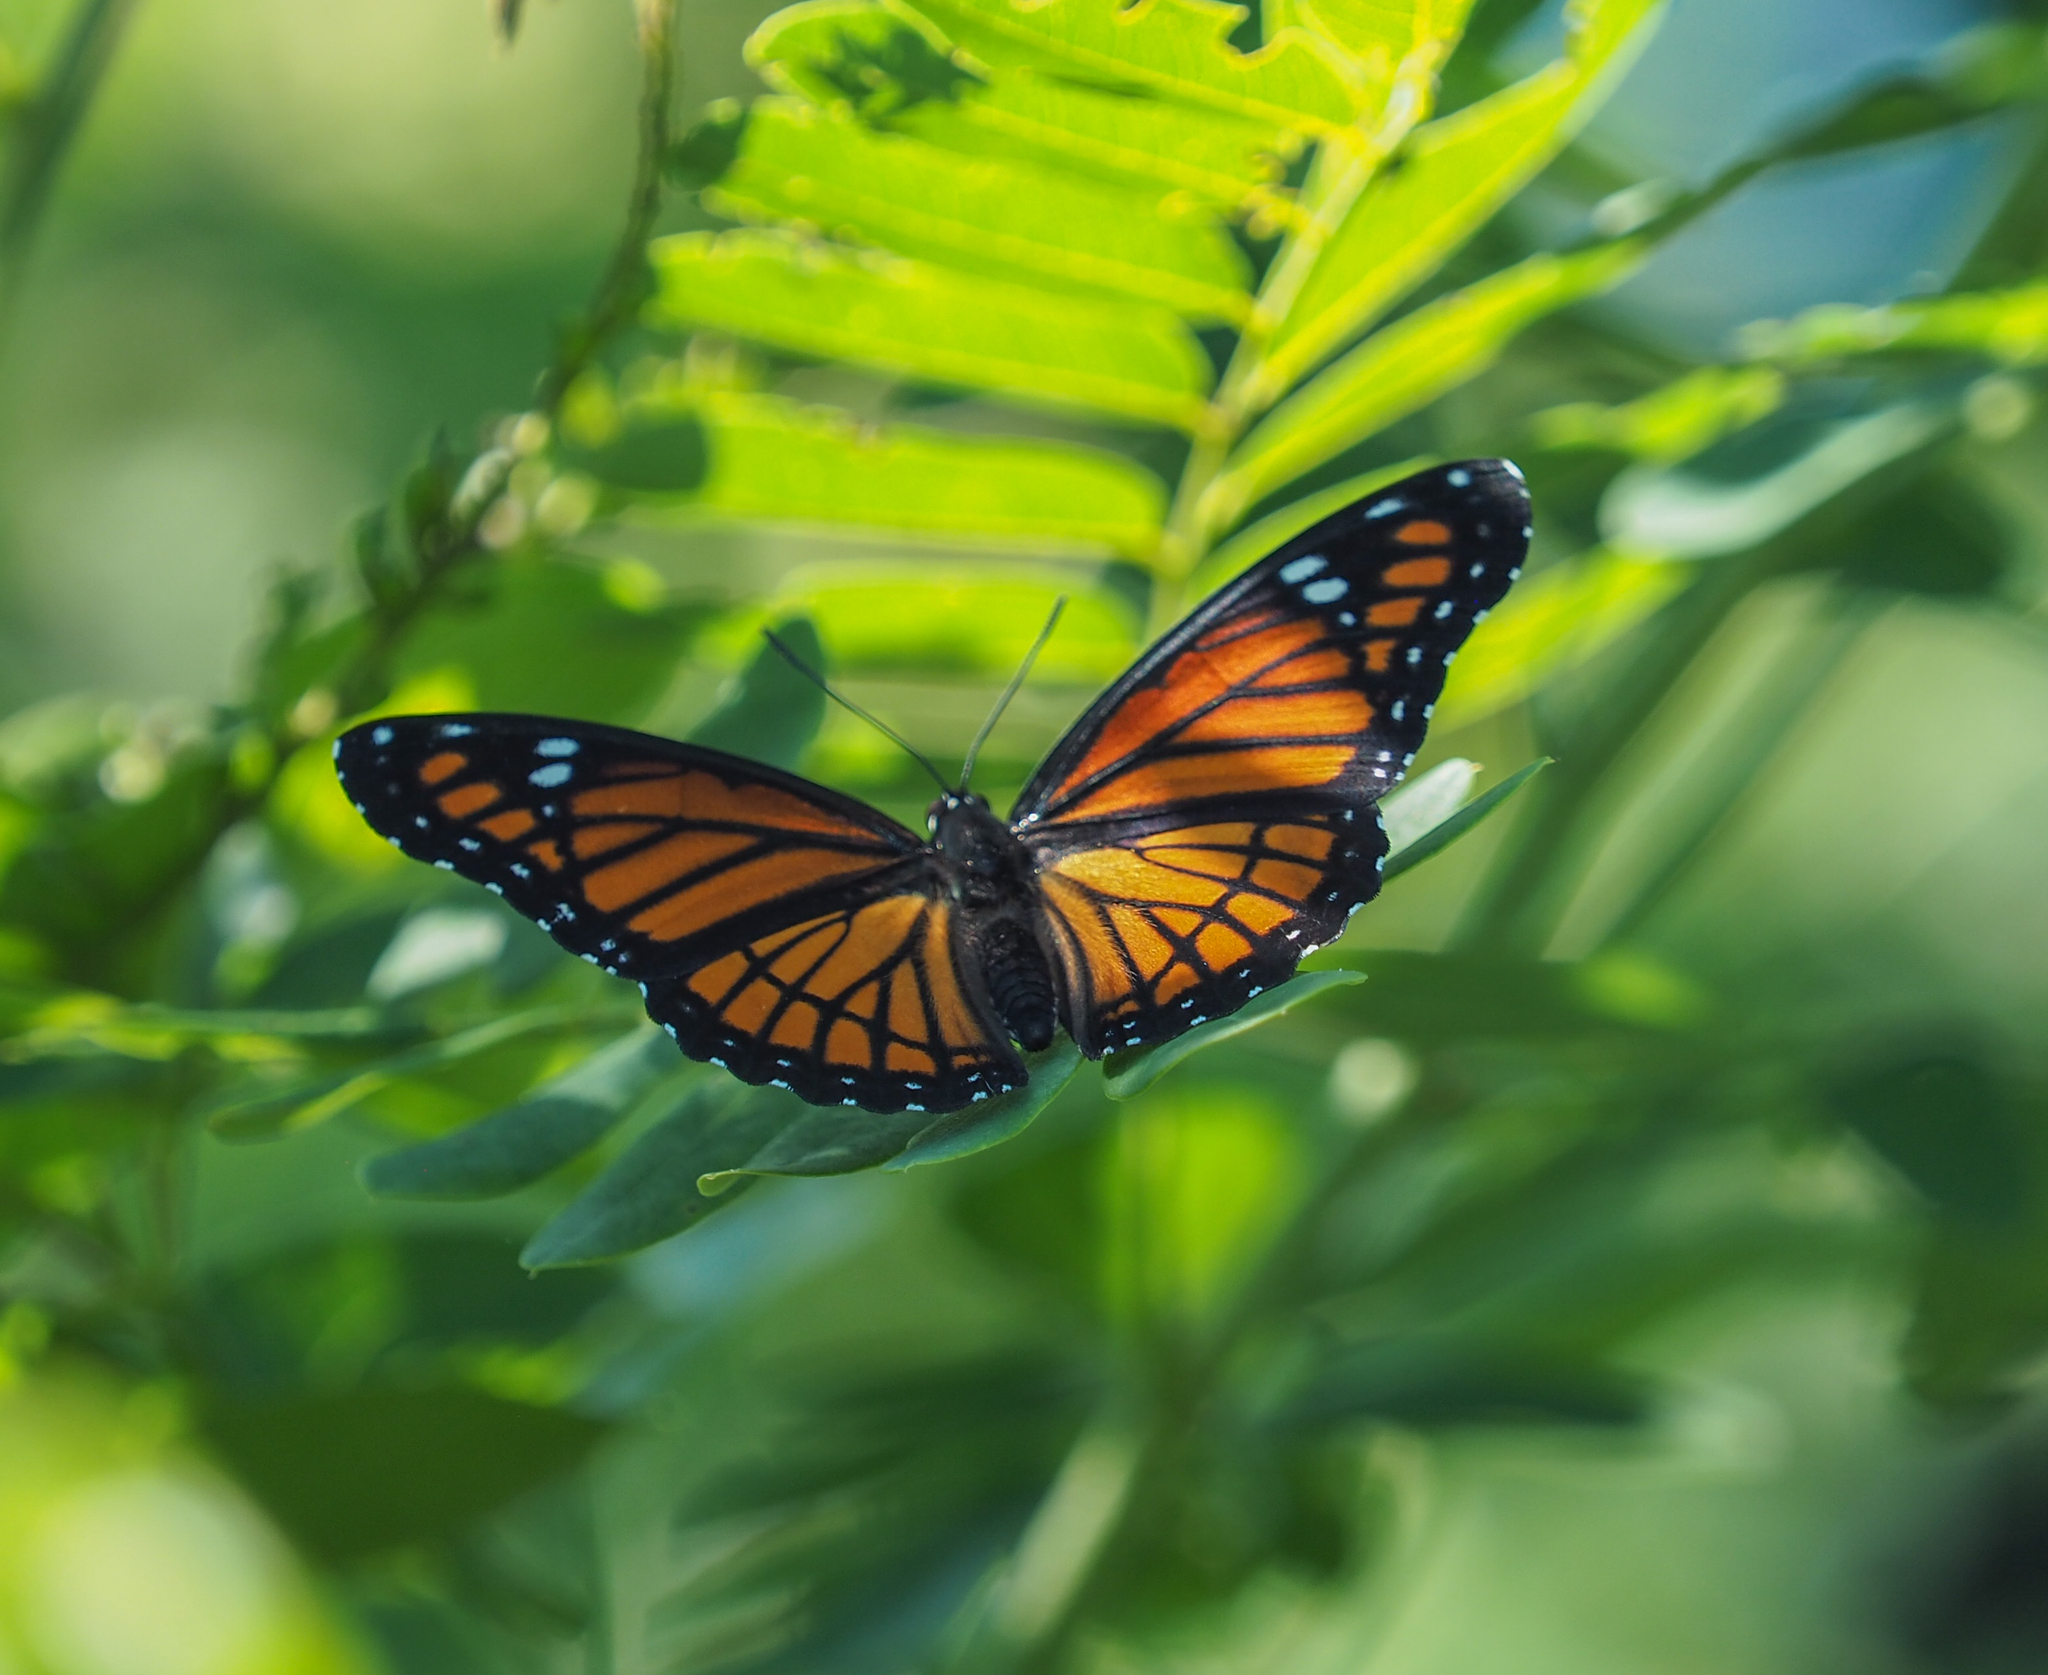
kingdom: Animalia
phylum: Arthropoda
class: Insecta
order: Lepidoptera
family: Nymphalidae
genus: Limenitis
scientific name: Limenitis archippus
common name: Viceroy
